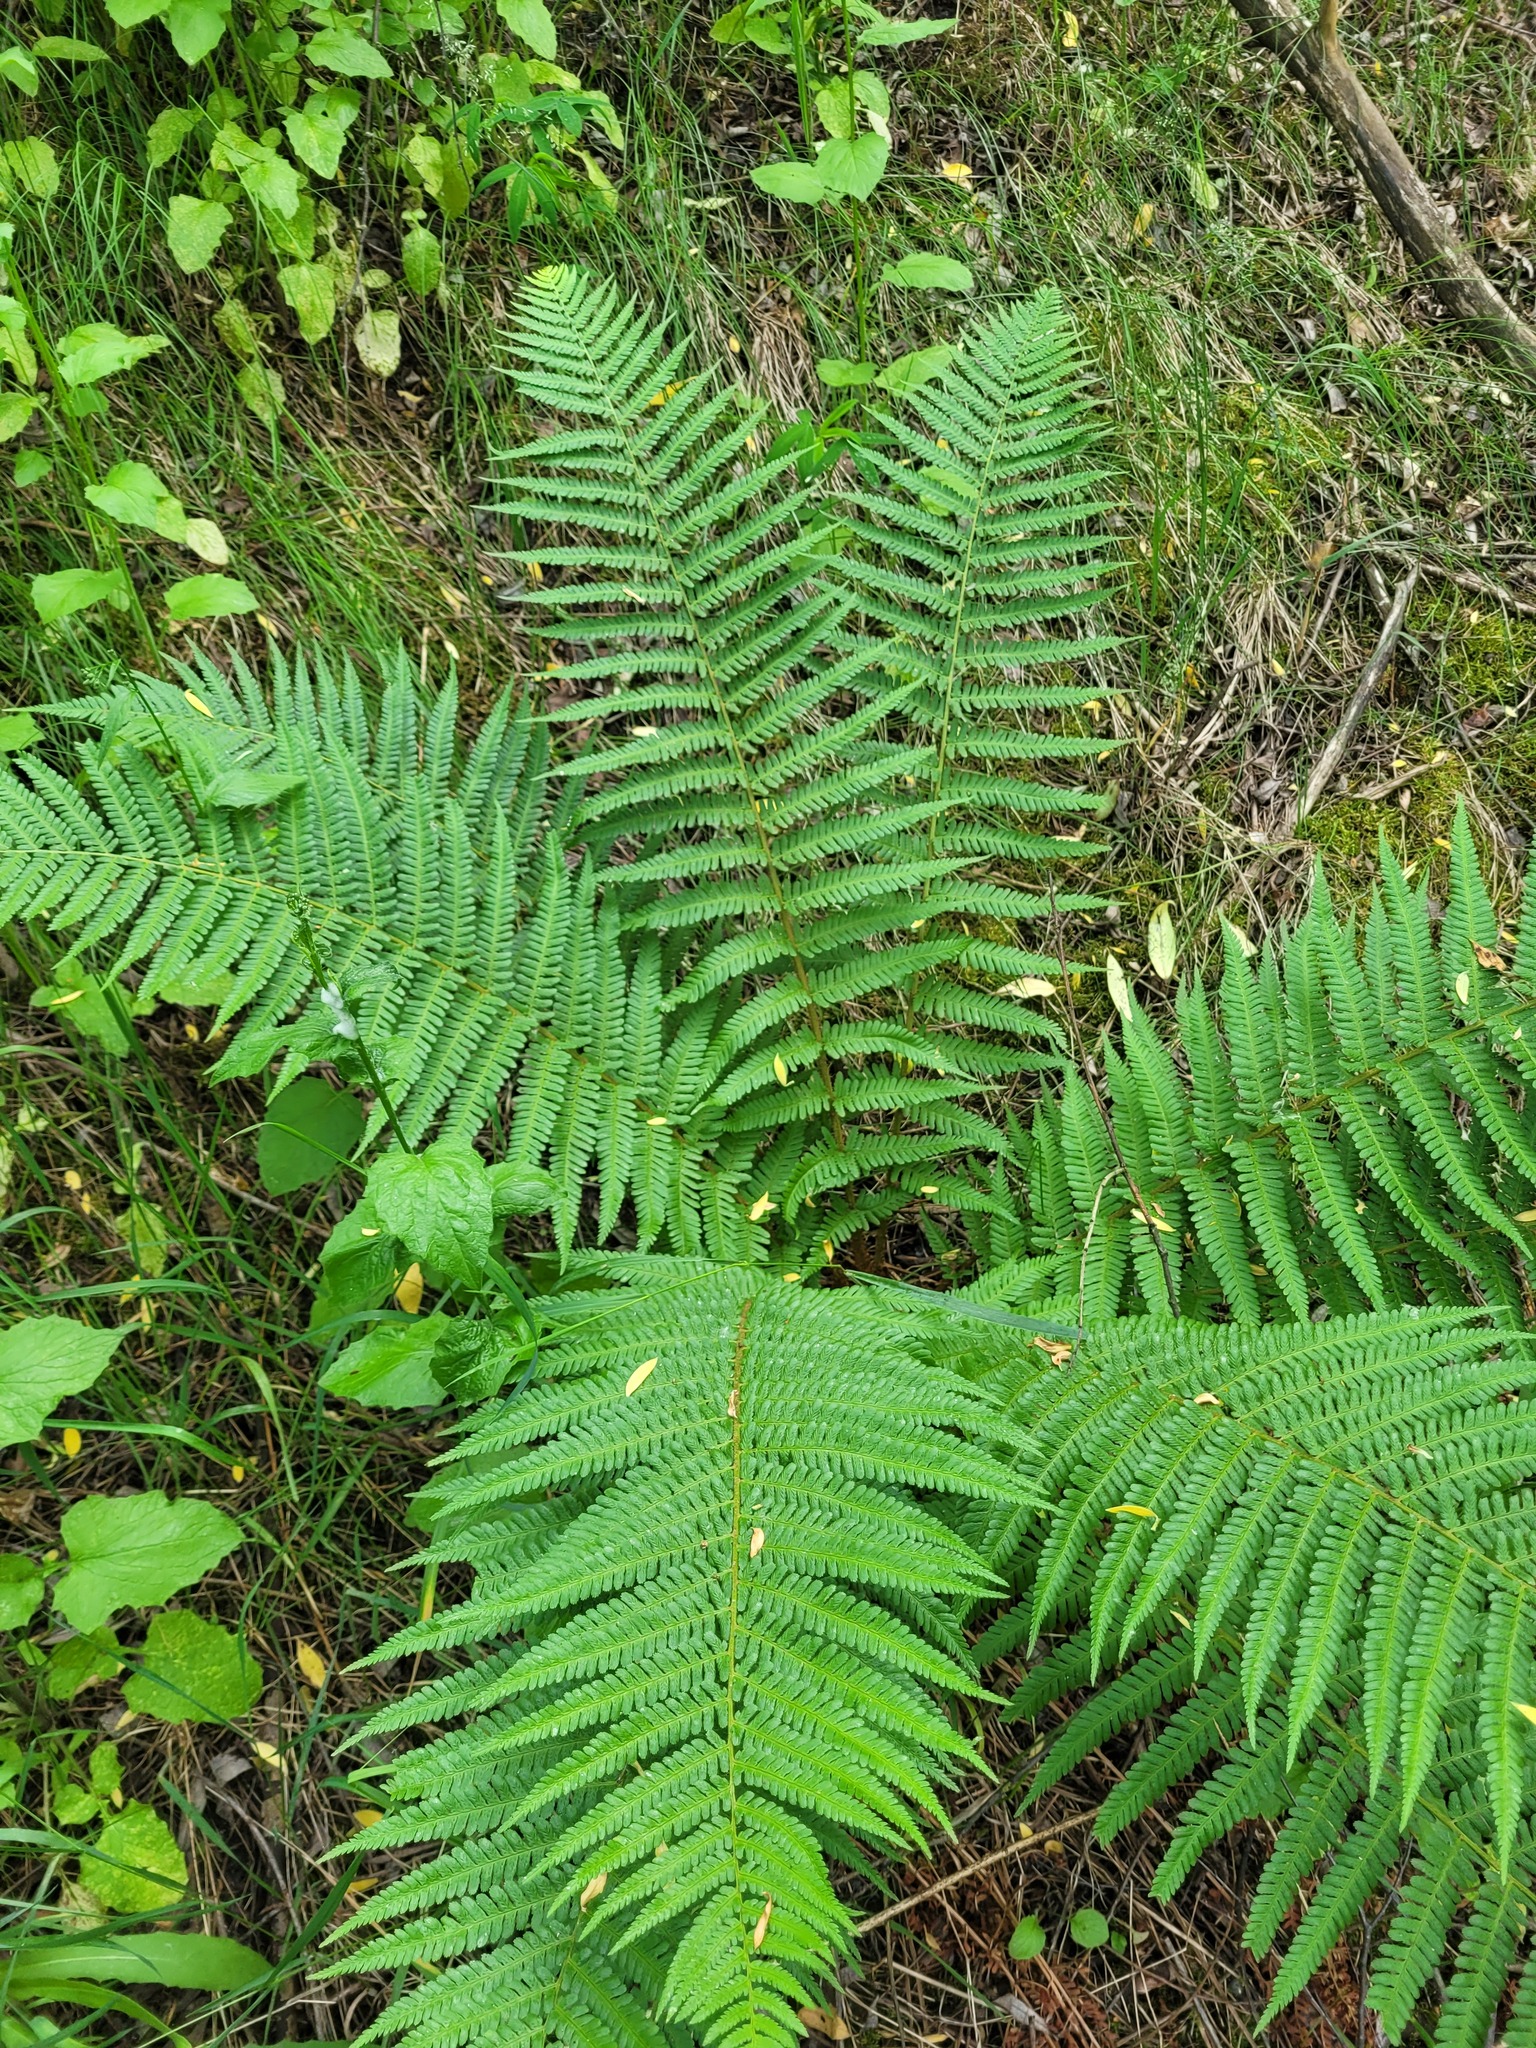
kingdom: Plantae
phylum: Tracheophyta
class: Polypodiopsida
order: Polypodiales
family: Dryopteridaceae
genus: Dryopteris
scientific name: Dryopteris filix-mas
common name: Male fern
